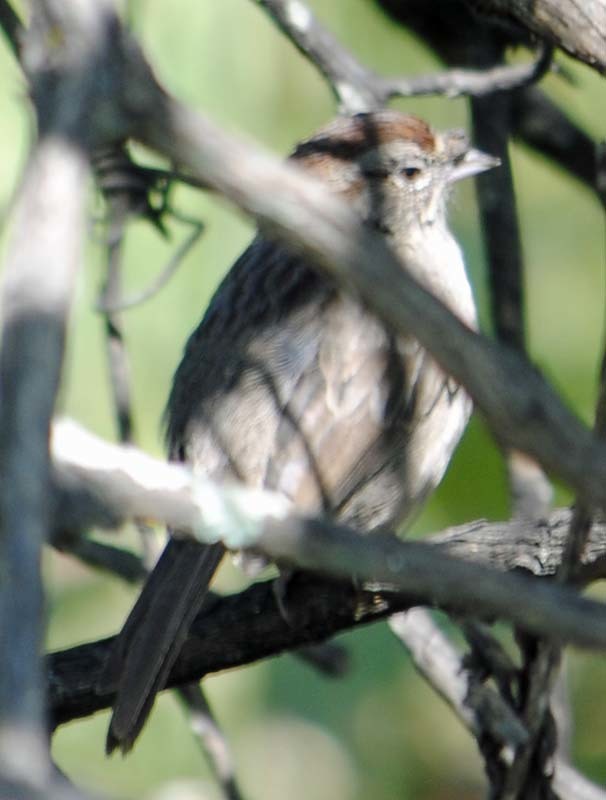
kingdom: Animalia
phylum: Chordata
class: Aves
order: Passeriformes
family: Passerellidae
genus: Aimophila
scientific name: Aimophila ruficeps
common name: Rufous-crowned sparrow
